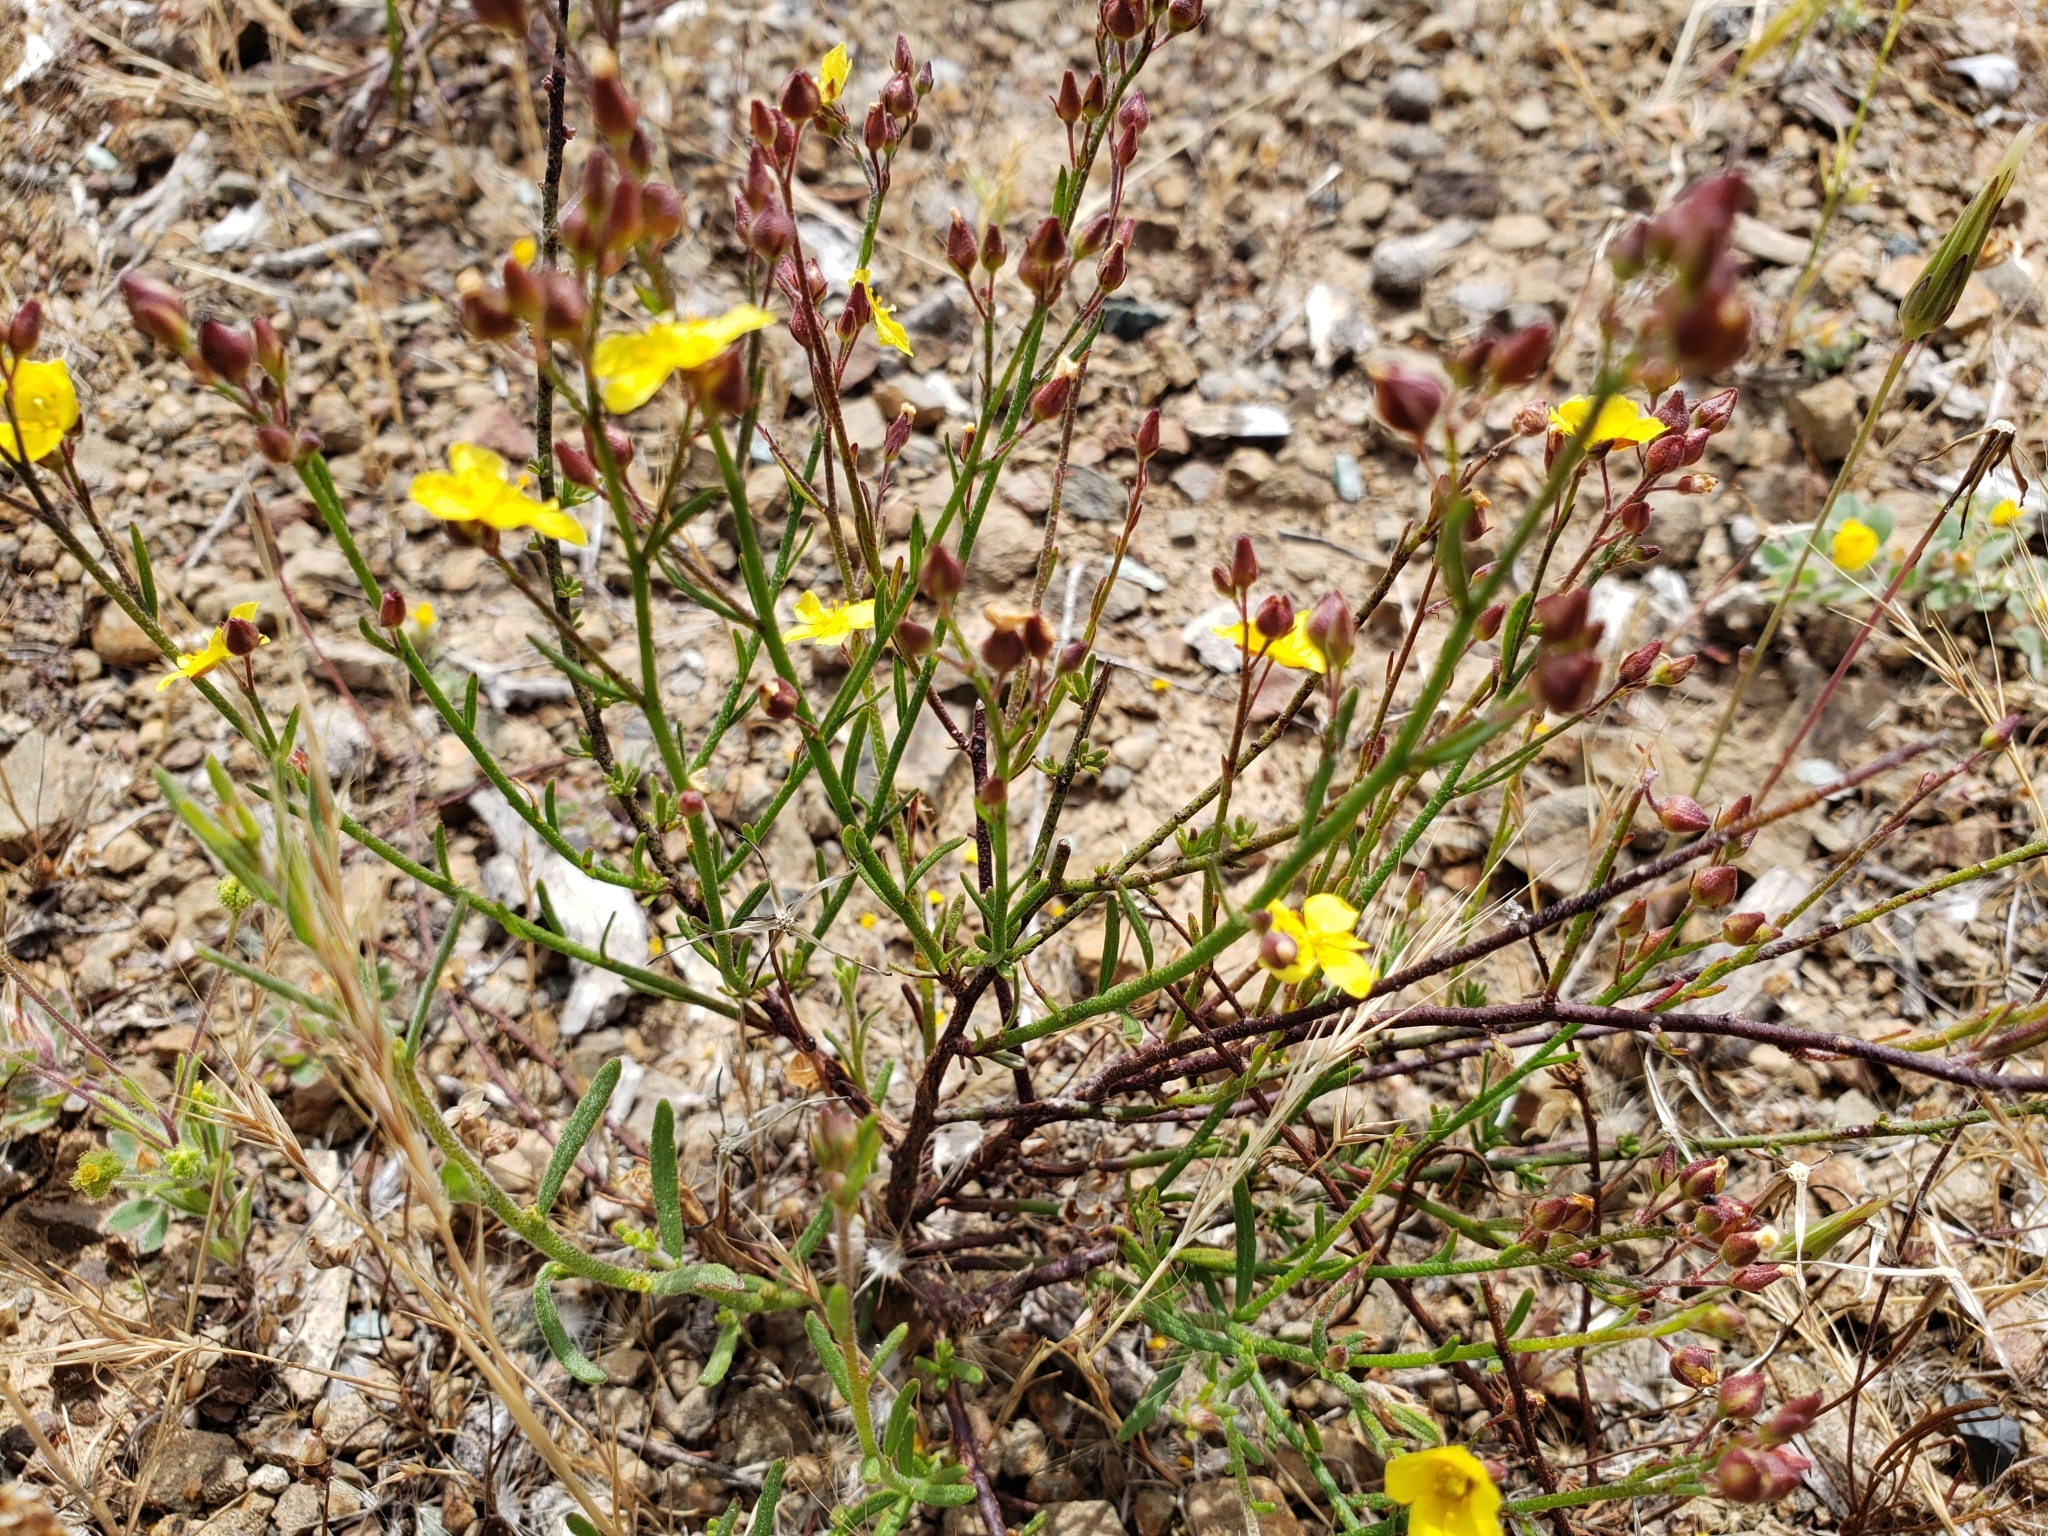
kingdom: Plantae
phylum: Tracheophyta
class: Magnoliopsida
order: Malvales
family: Cistaceae
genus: Crocanthemum
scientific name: Crocanthemum scoparium
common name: Broom-rose
